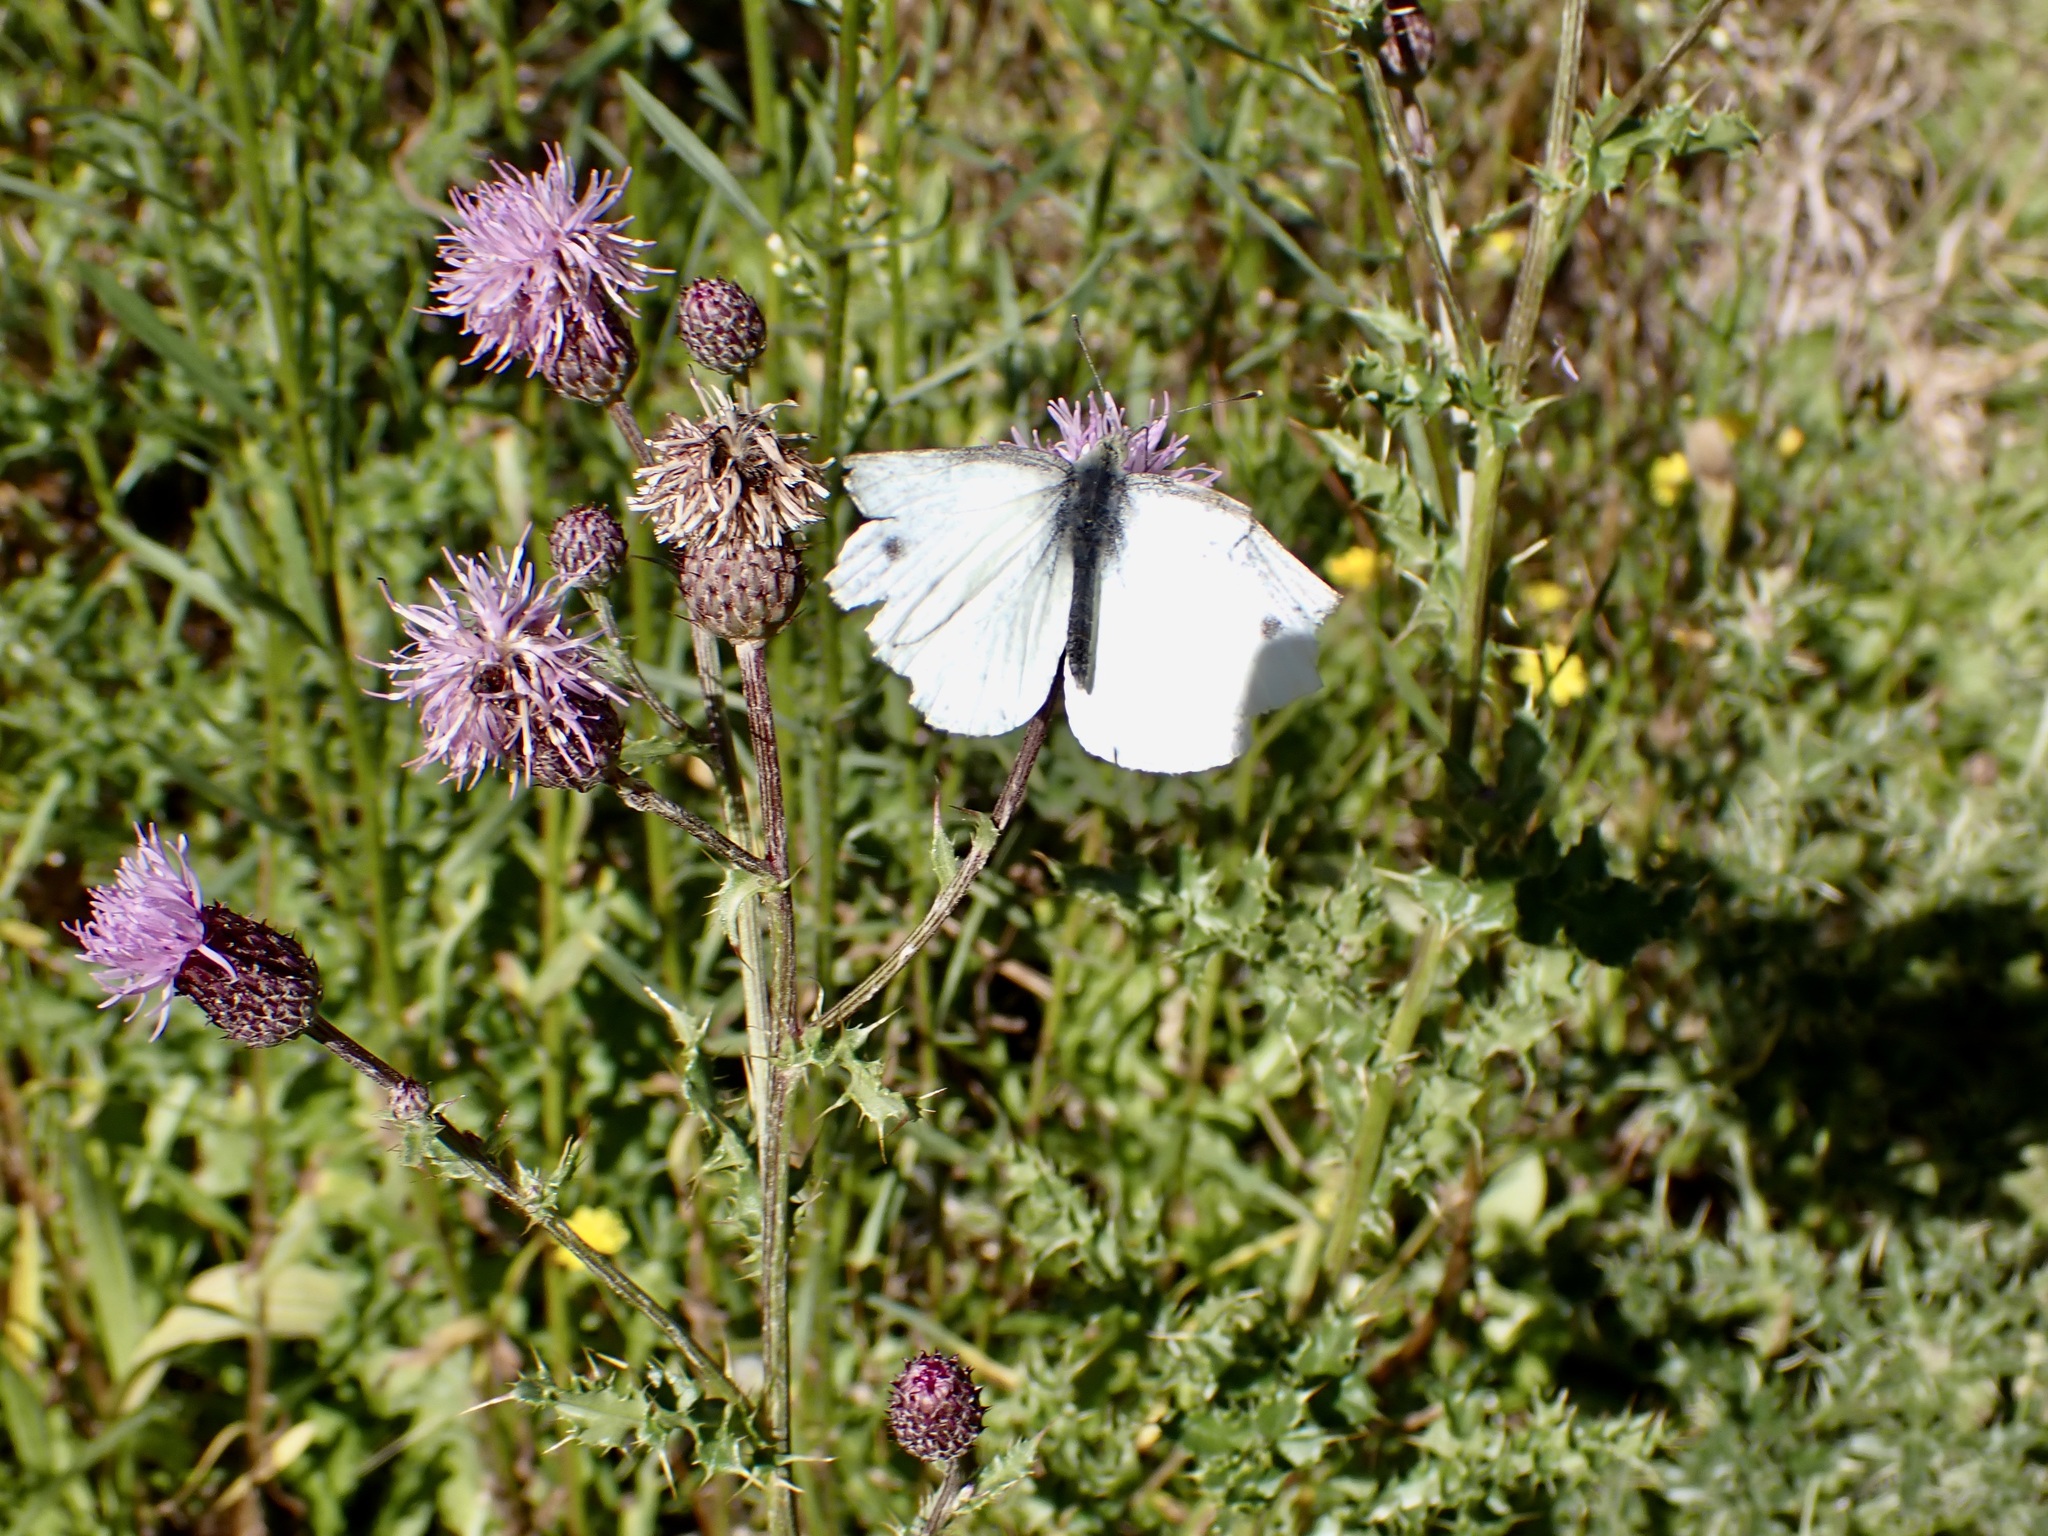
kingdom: Animalia
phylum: Arthropoda
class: Insecta
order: Lepidoptera
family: Pieridae
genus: Pieris
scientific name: Pieris rapae
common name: Small white
